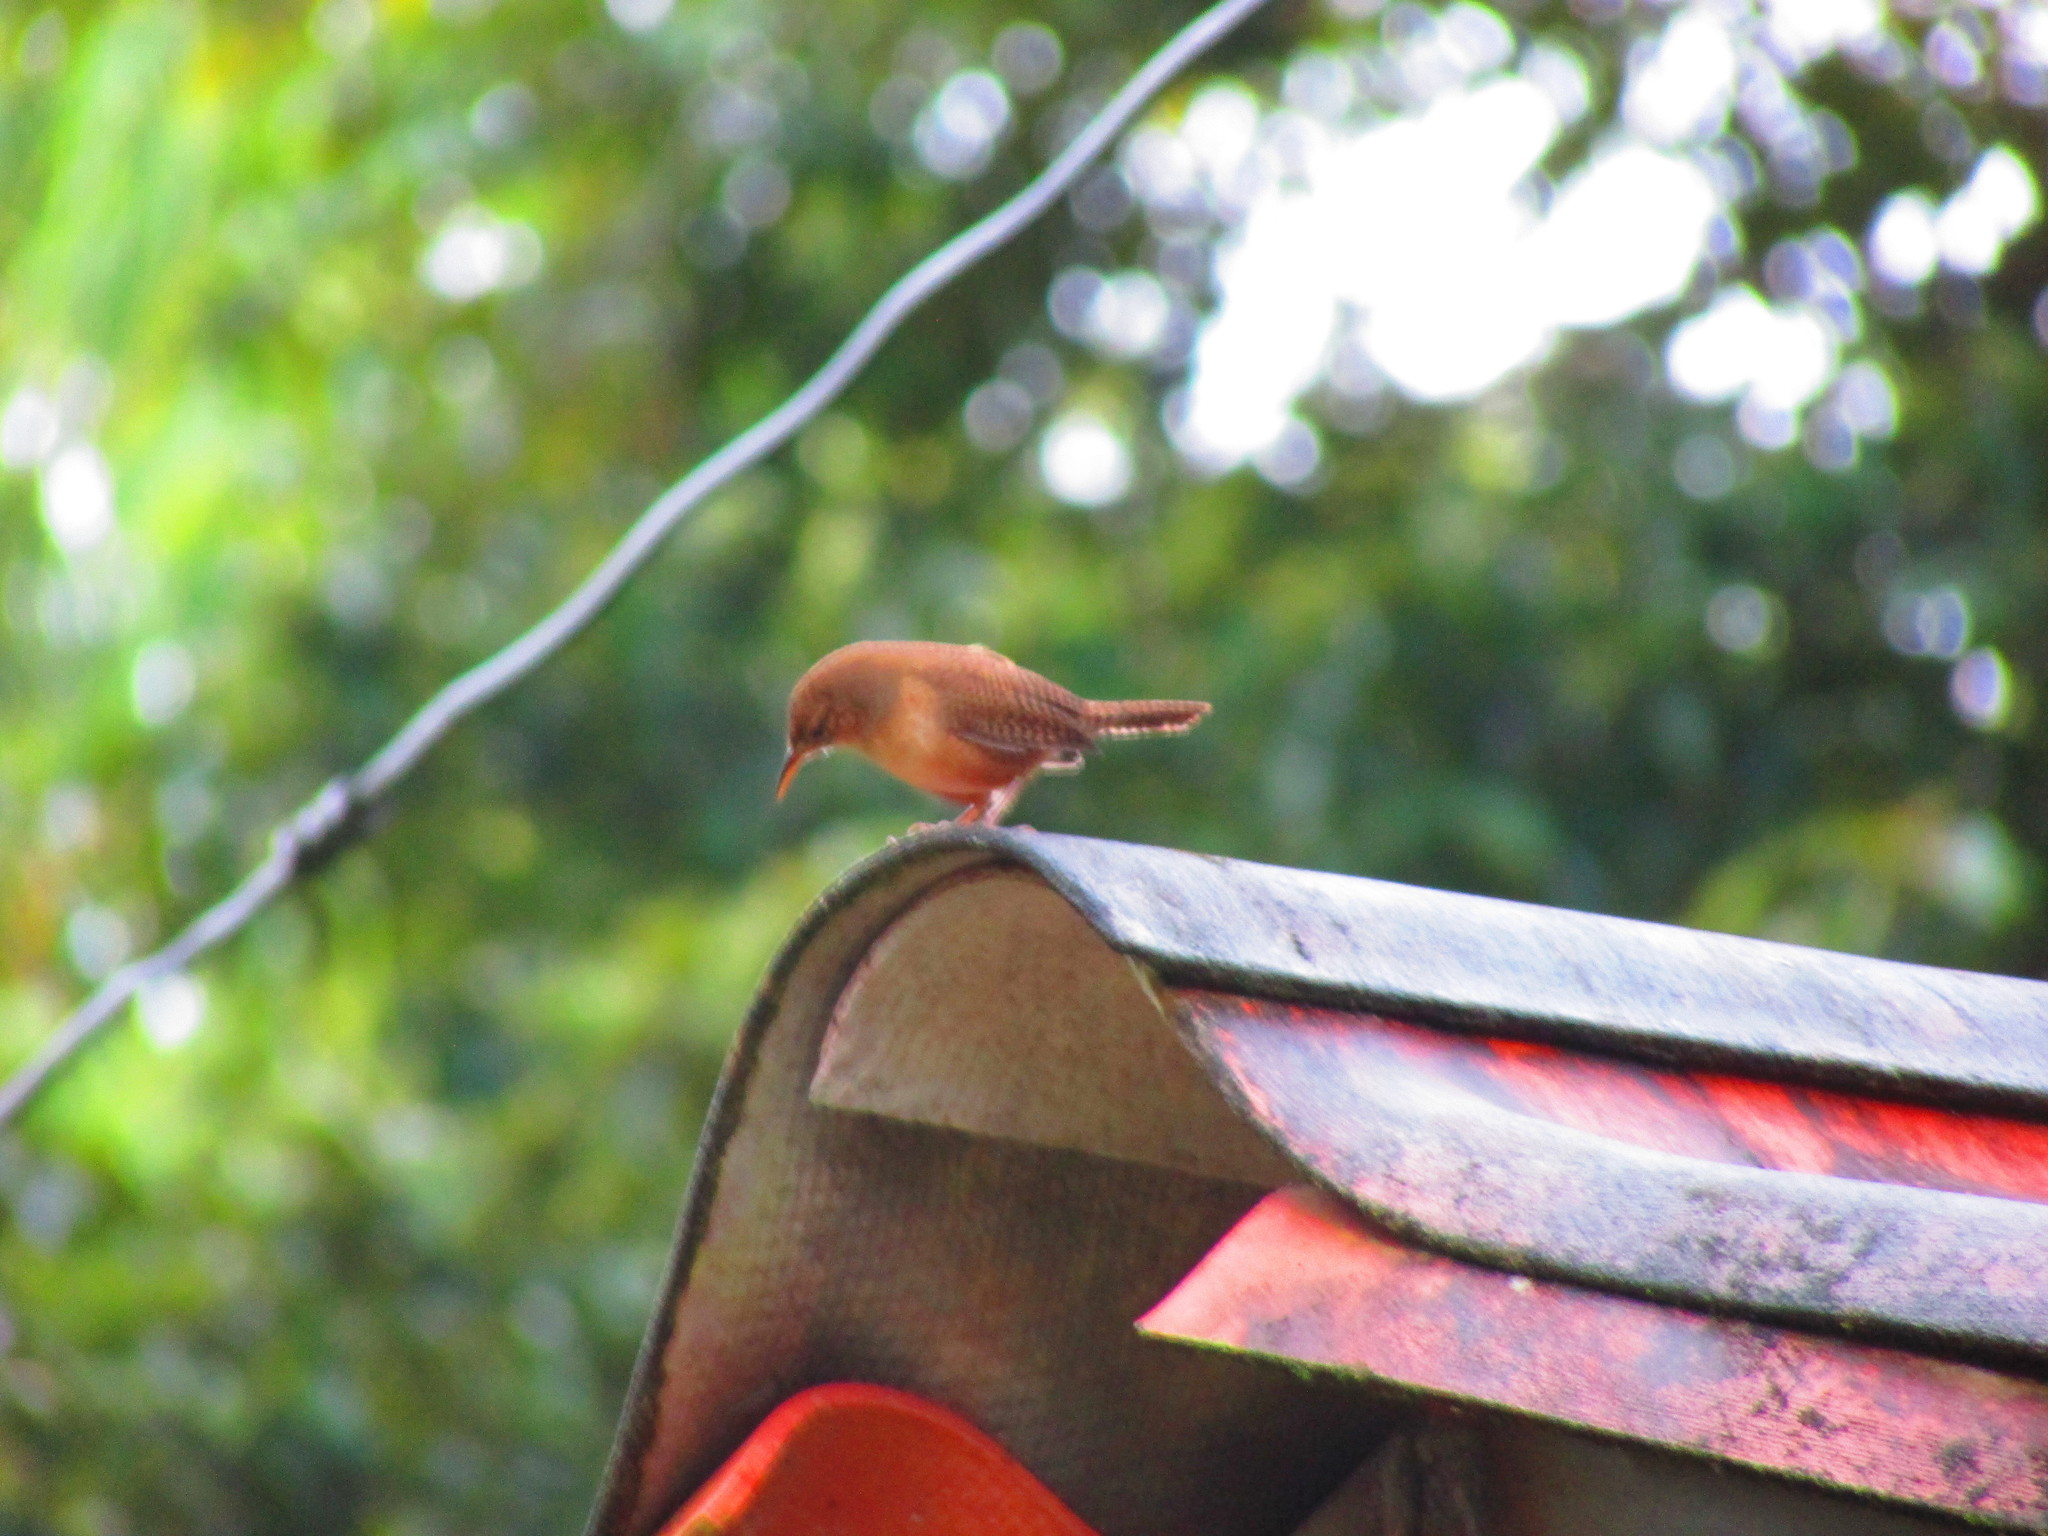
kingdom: Animalia
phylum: Chordata
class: Aves
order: Passeriformes
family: Troglodytidae
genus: Troglodytes
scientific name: Troglodytes aedon
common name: House wren
